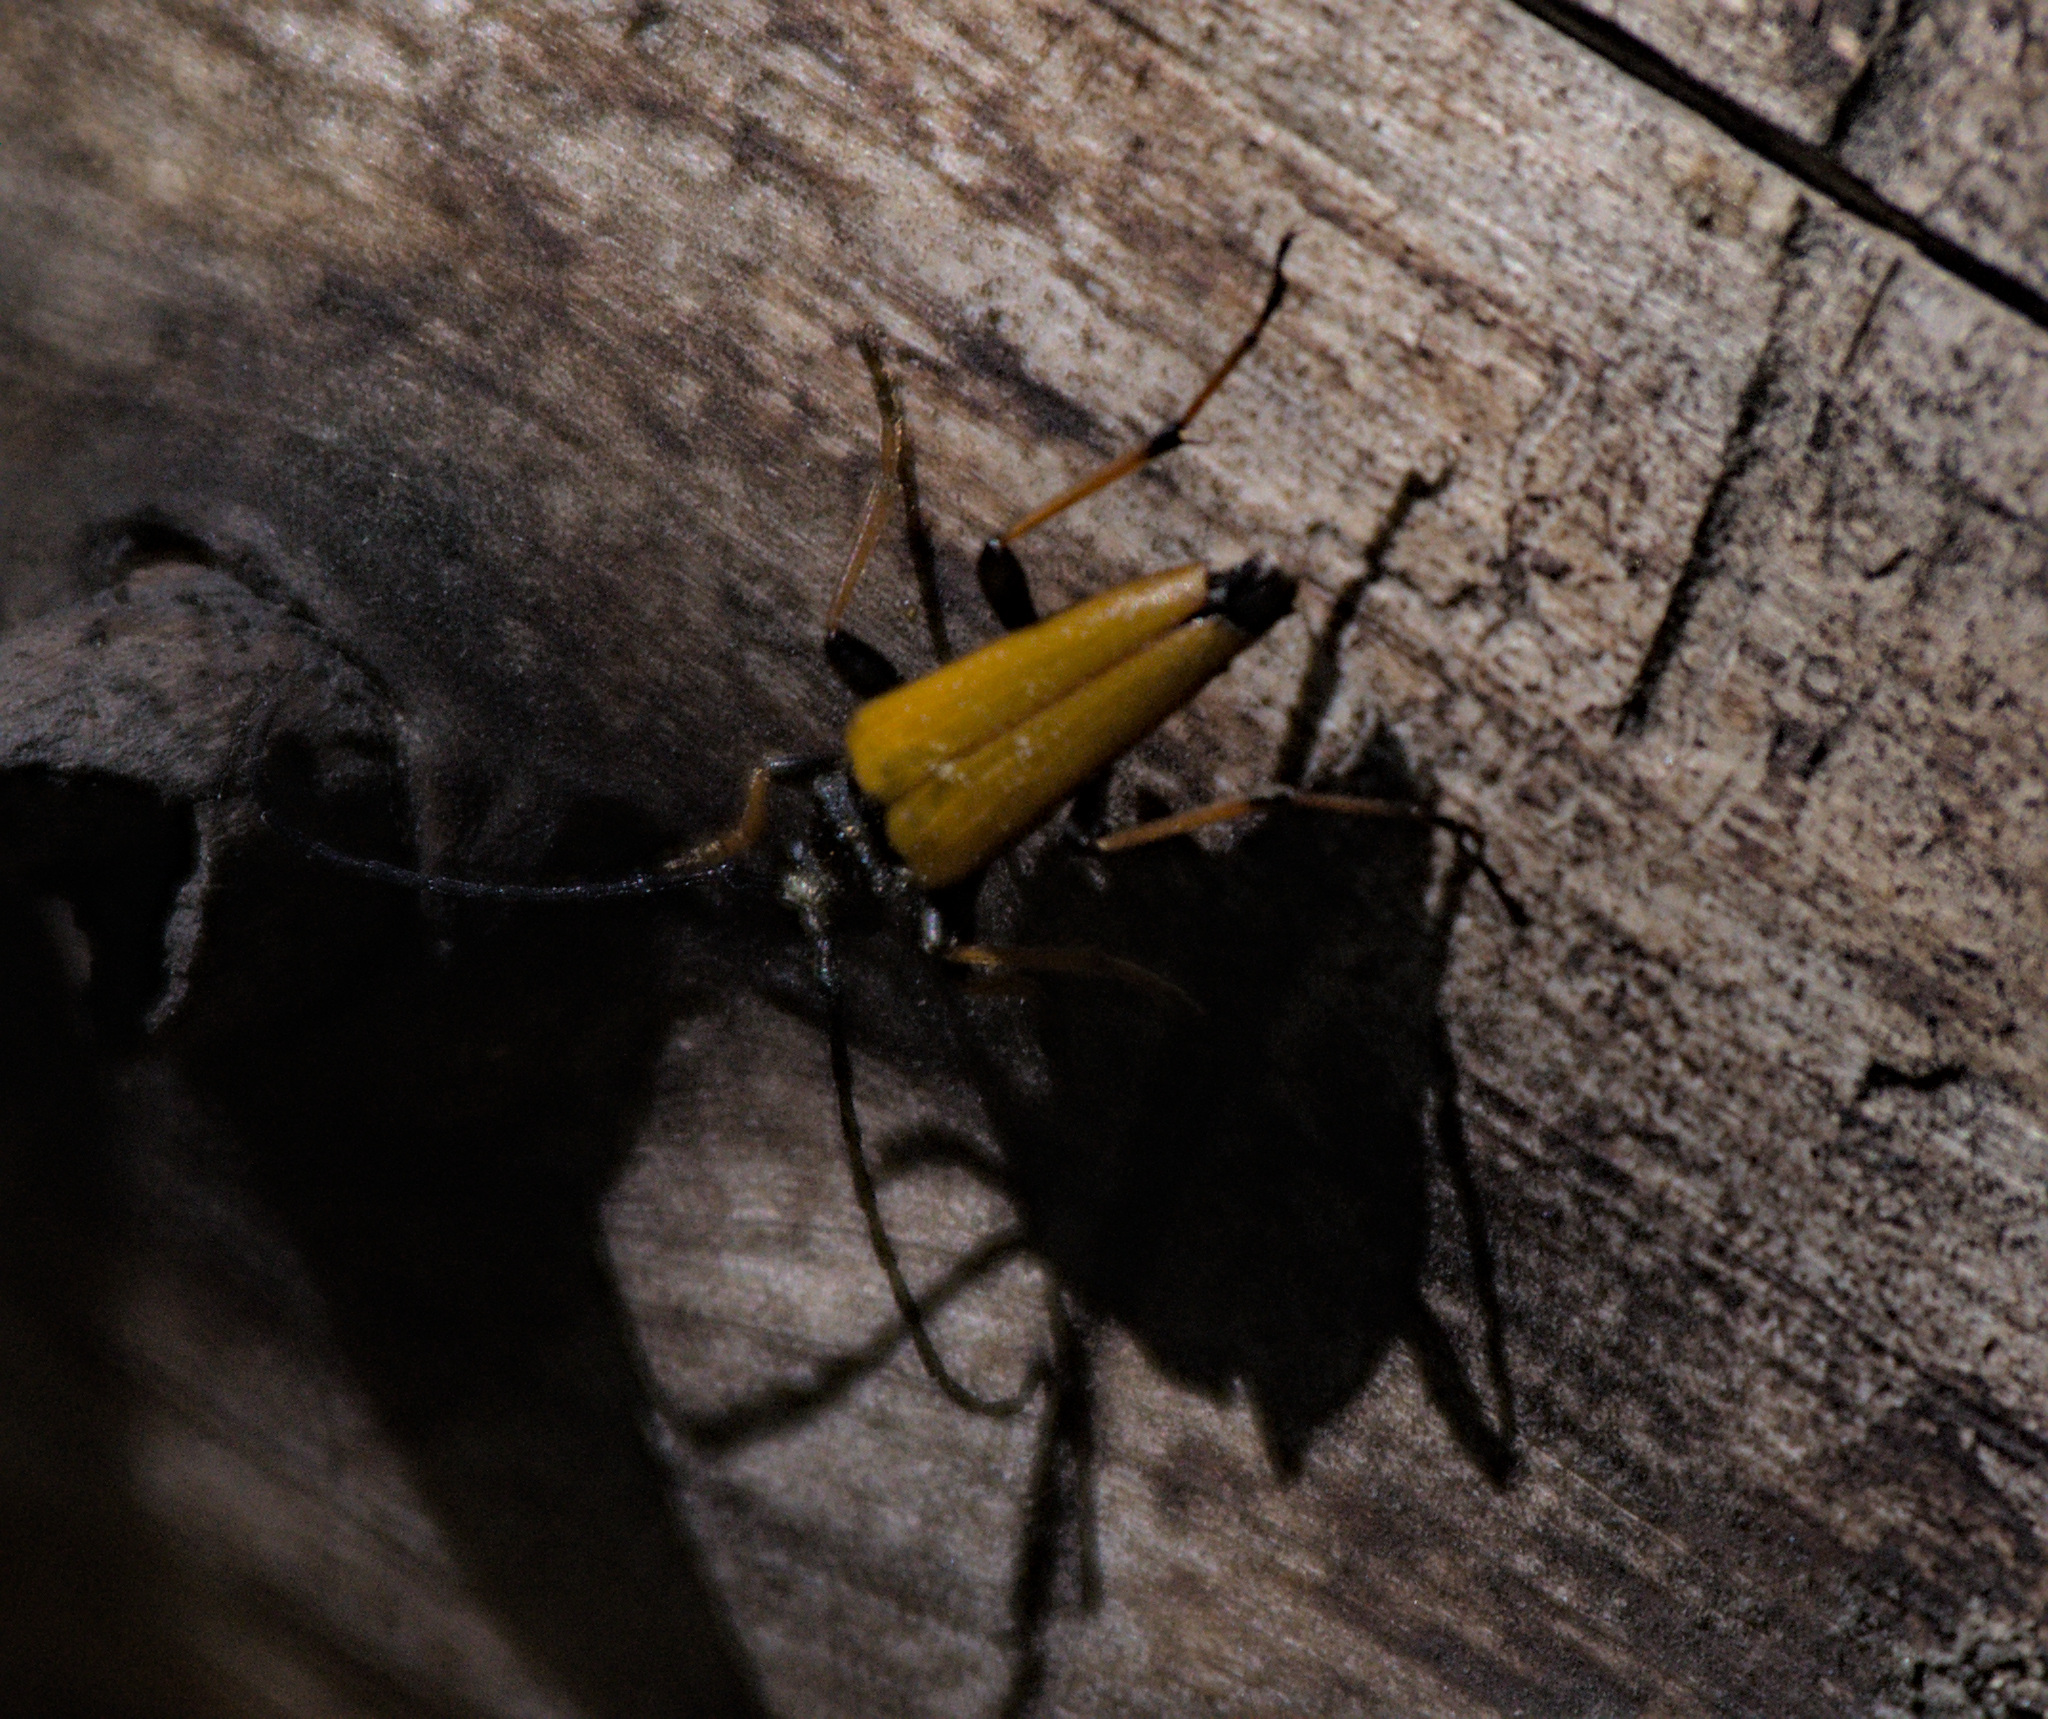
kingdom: Animalia
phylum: Arthropoda
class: Insecta
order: Coleoptera
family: Cerambycidae
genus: Stictoleptura
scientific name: Stictoleptura rubra
